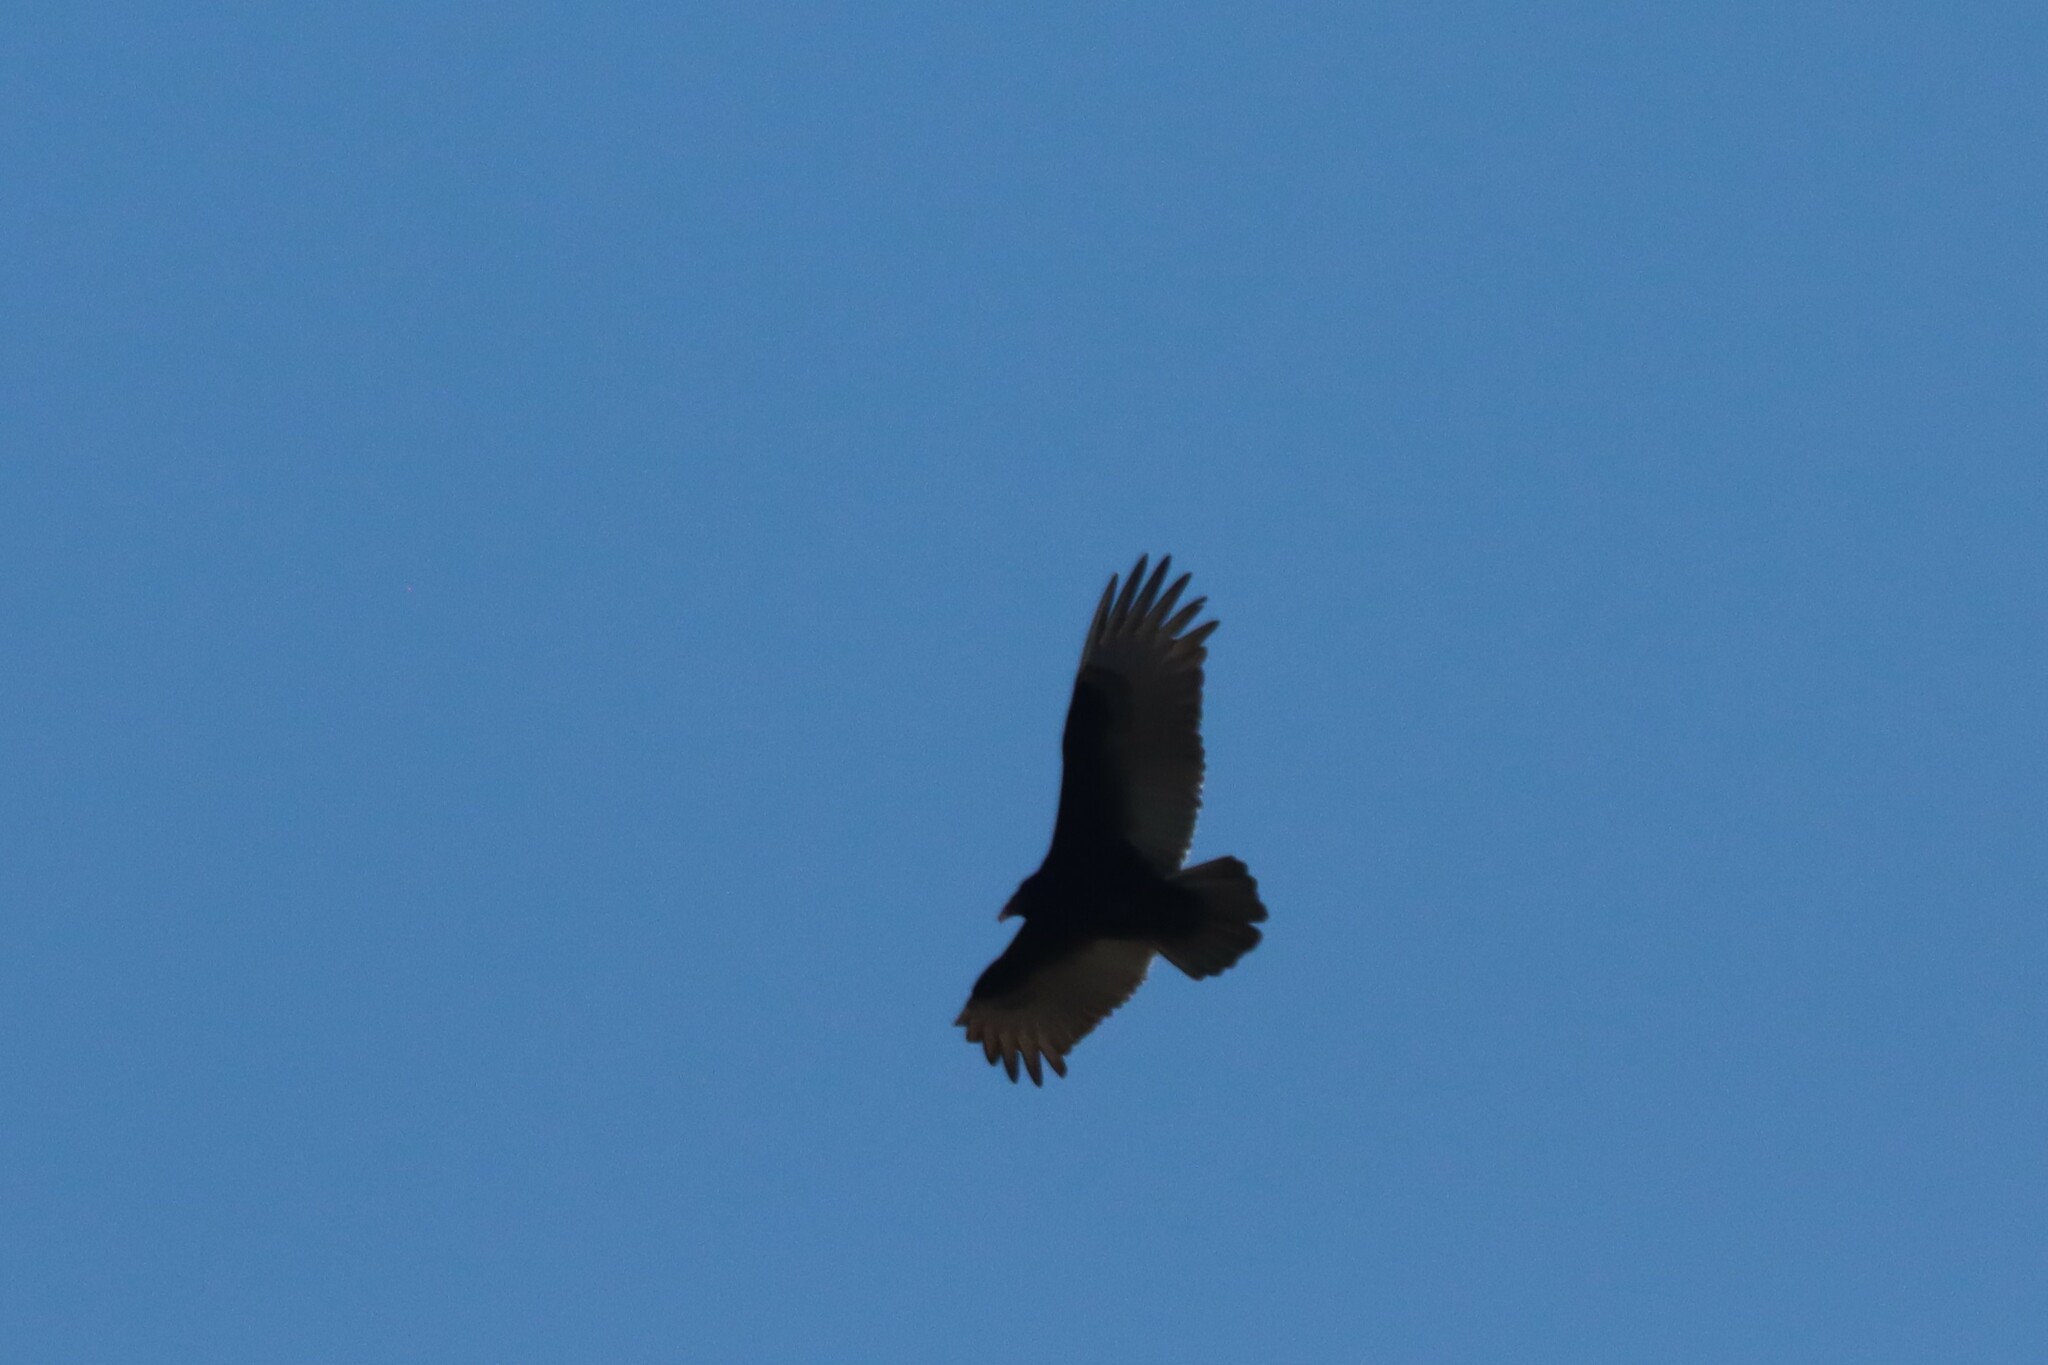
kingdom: Animalia
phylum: Chordata
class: Aves
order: Accipitriformes
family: Cathartidae
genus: Cathartes
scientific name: Cathartes aura
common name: Turkey vulture
